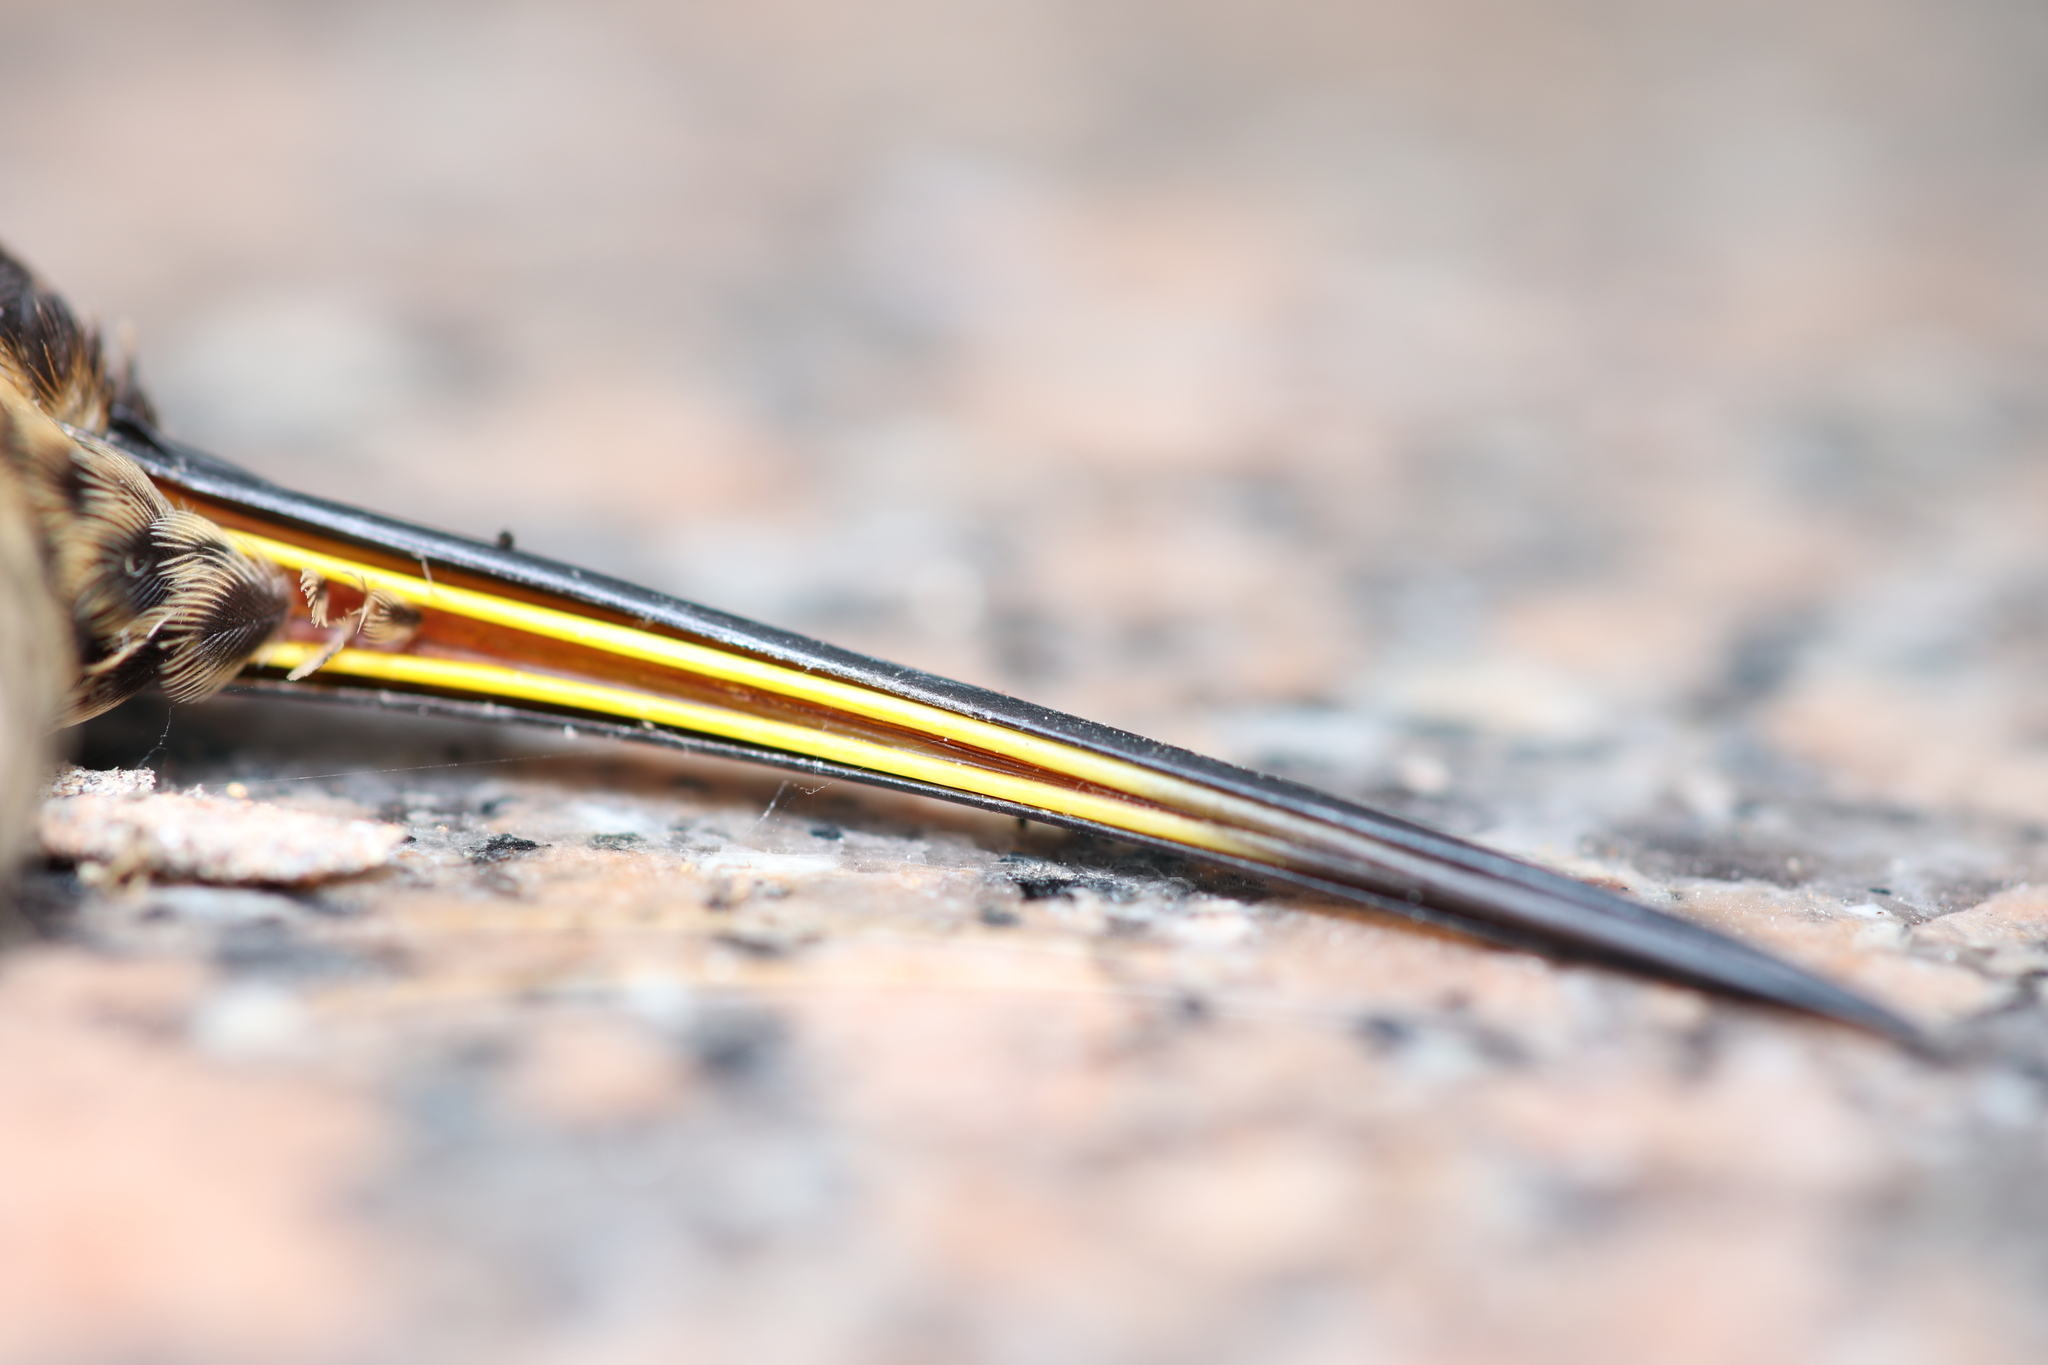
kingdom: Animalia
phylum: Chordata
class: Aves
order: Apodiformes
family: Trochilidae
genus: Phaethornis
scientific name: Phaethornis eurynome
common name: Scale-throated hermit
